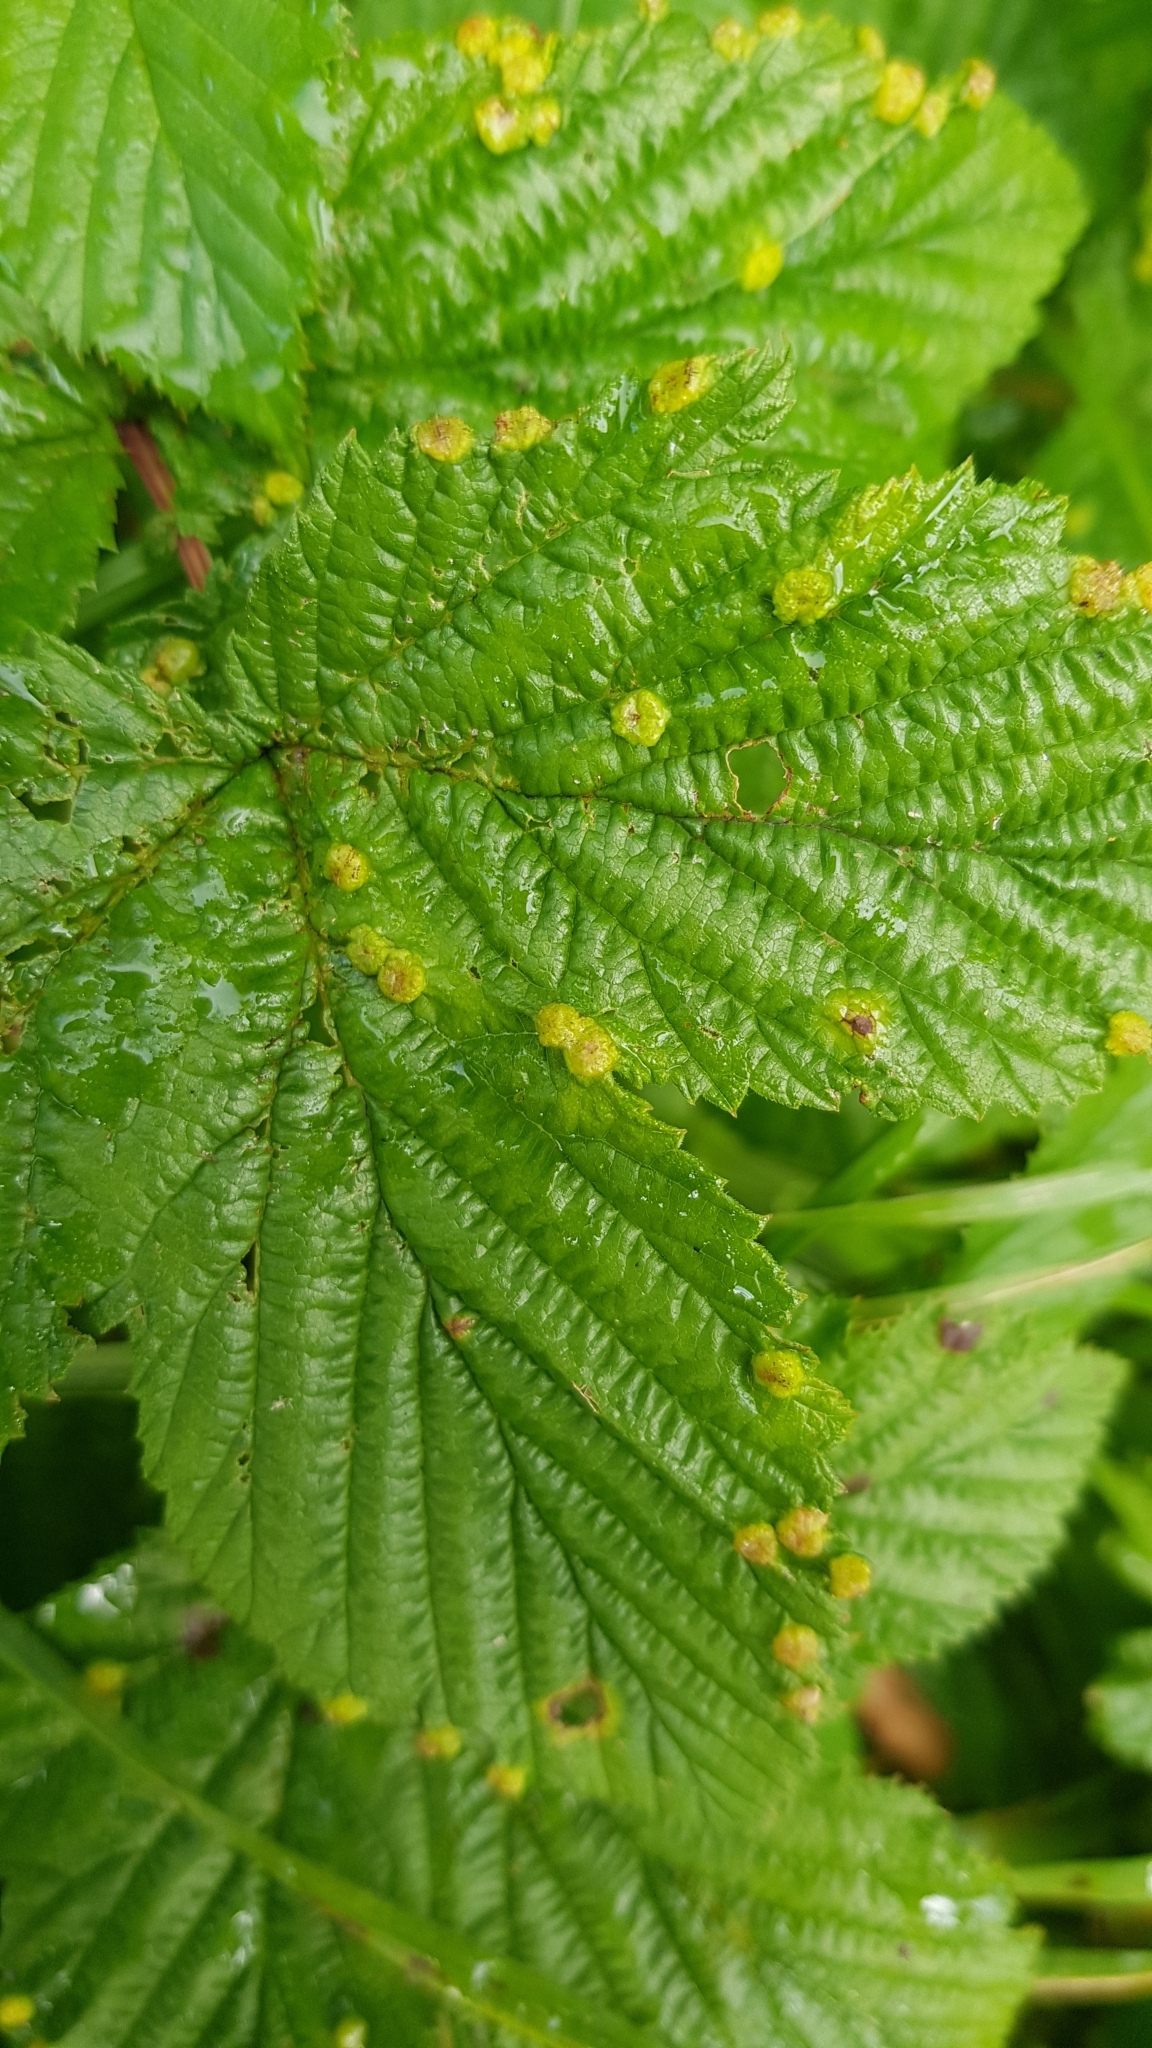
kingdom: Animalia
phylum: Arthropoda
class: Insecta
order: Diptera
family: Cecidomyiidae
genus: Dasineura
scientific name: Dasineura ulmaria
